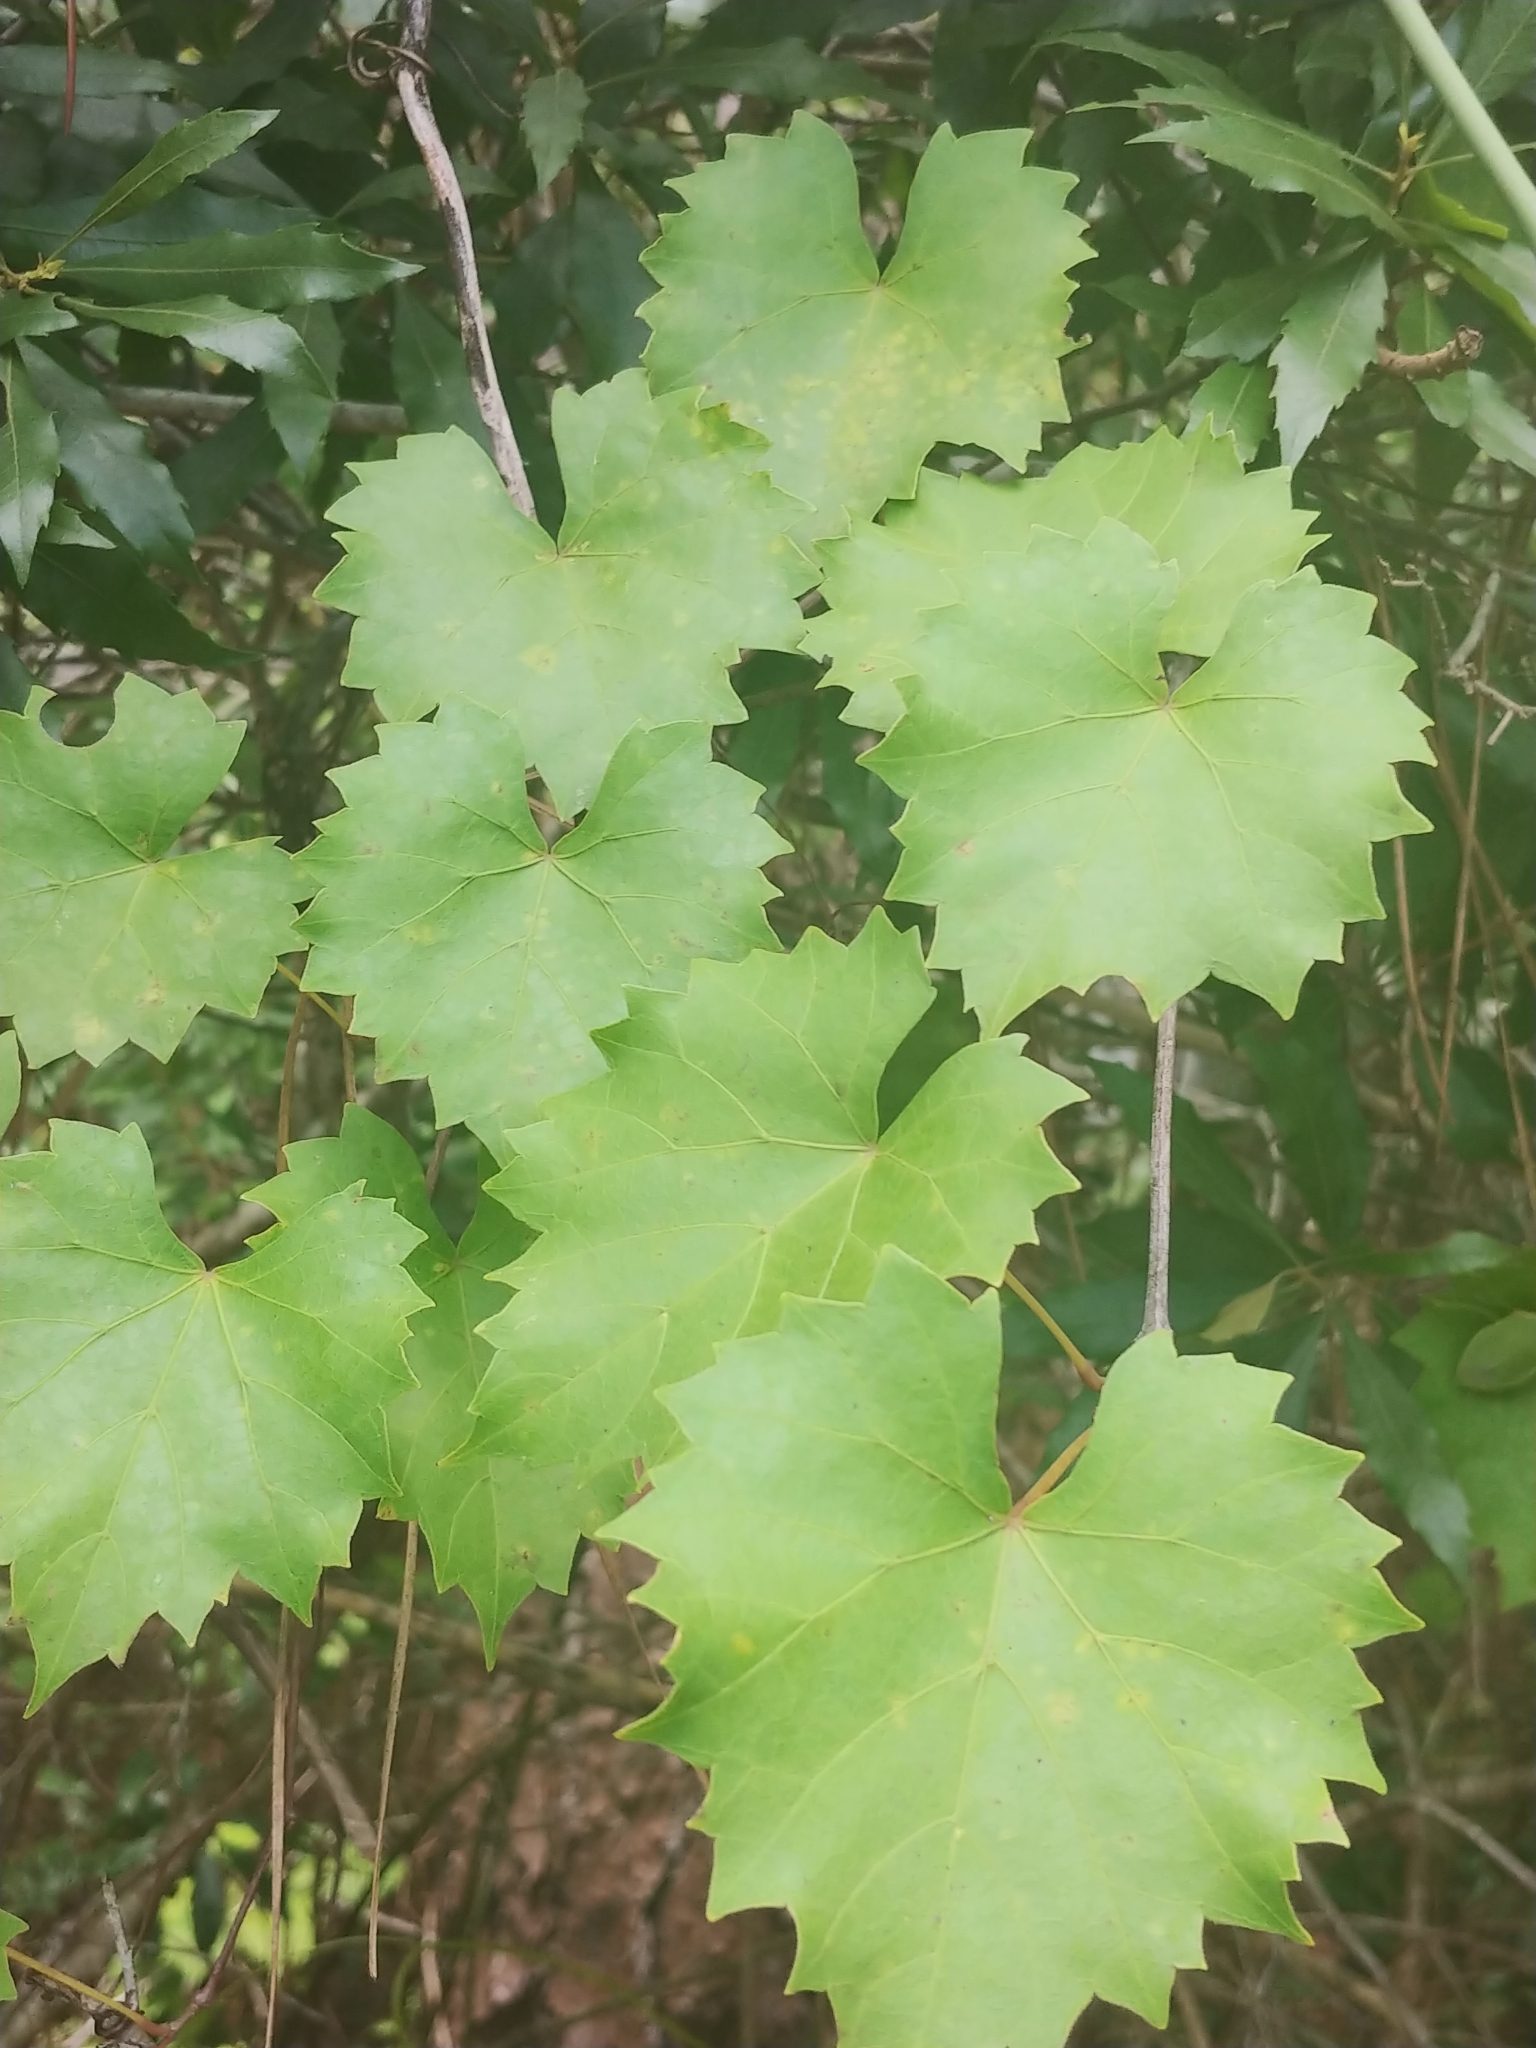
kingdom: Plantae
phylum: Tracheophyta
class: Magnoliopsida
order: Vitales
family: Vitaceae
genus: Vitis
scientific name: Vitis rotundifolia
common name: Muscadine grape
